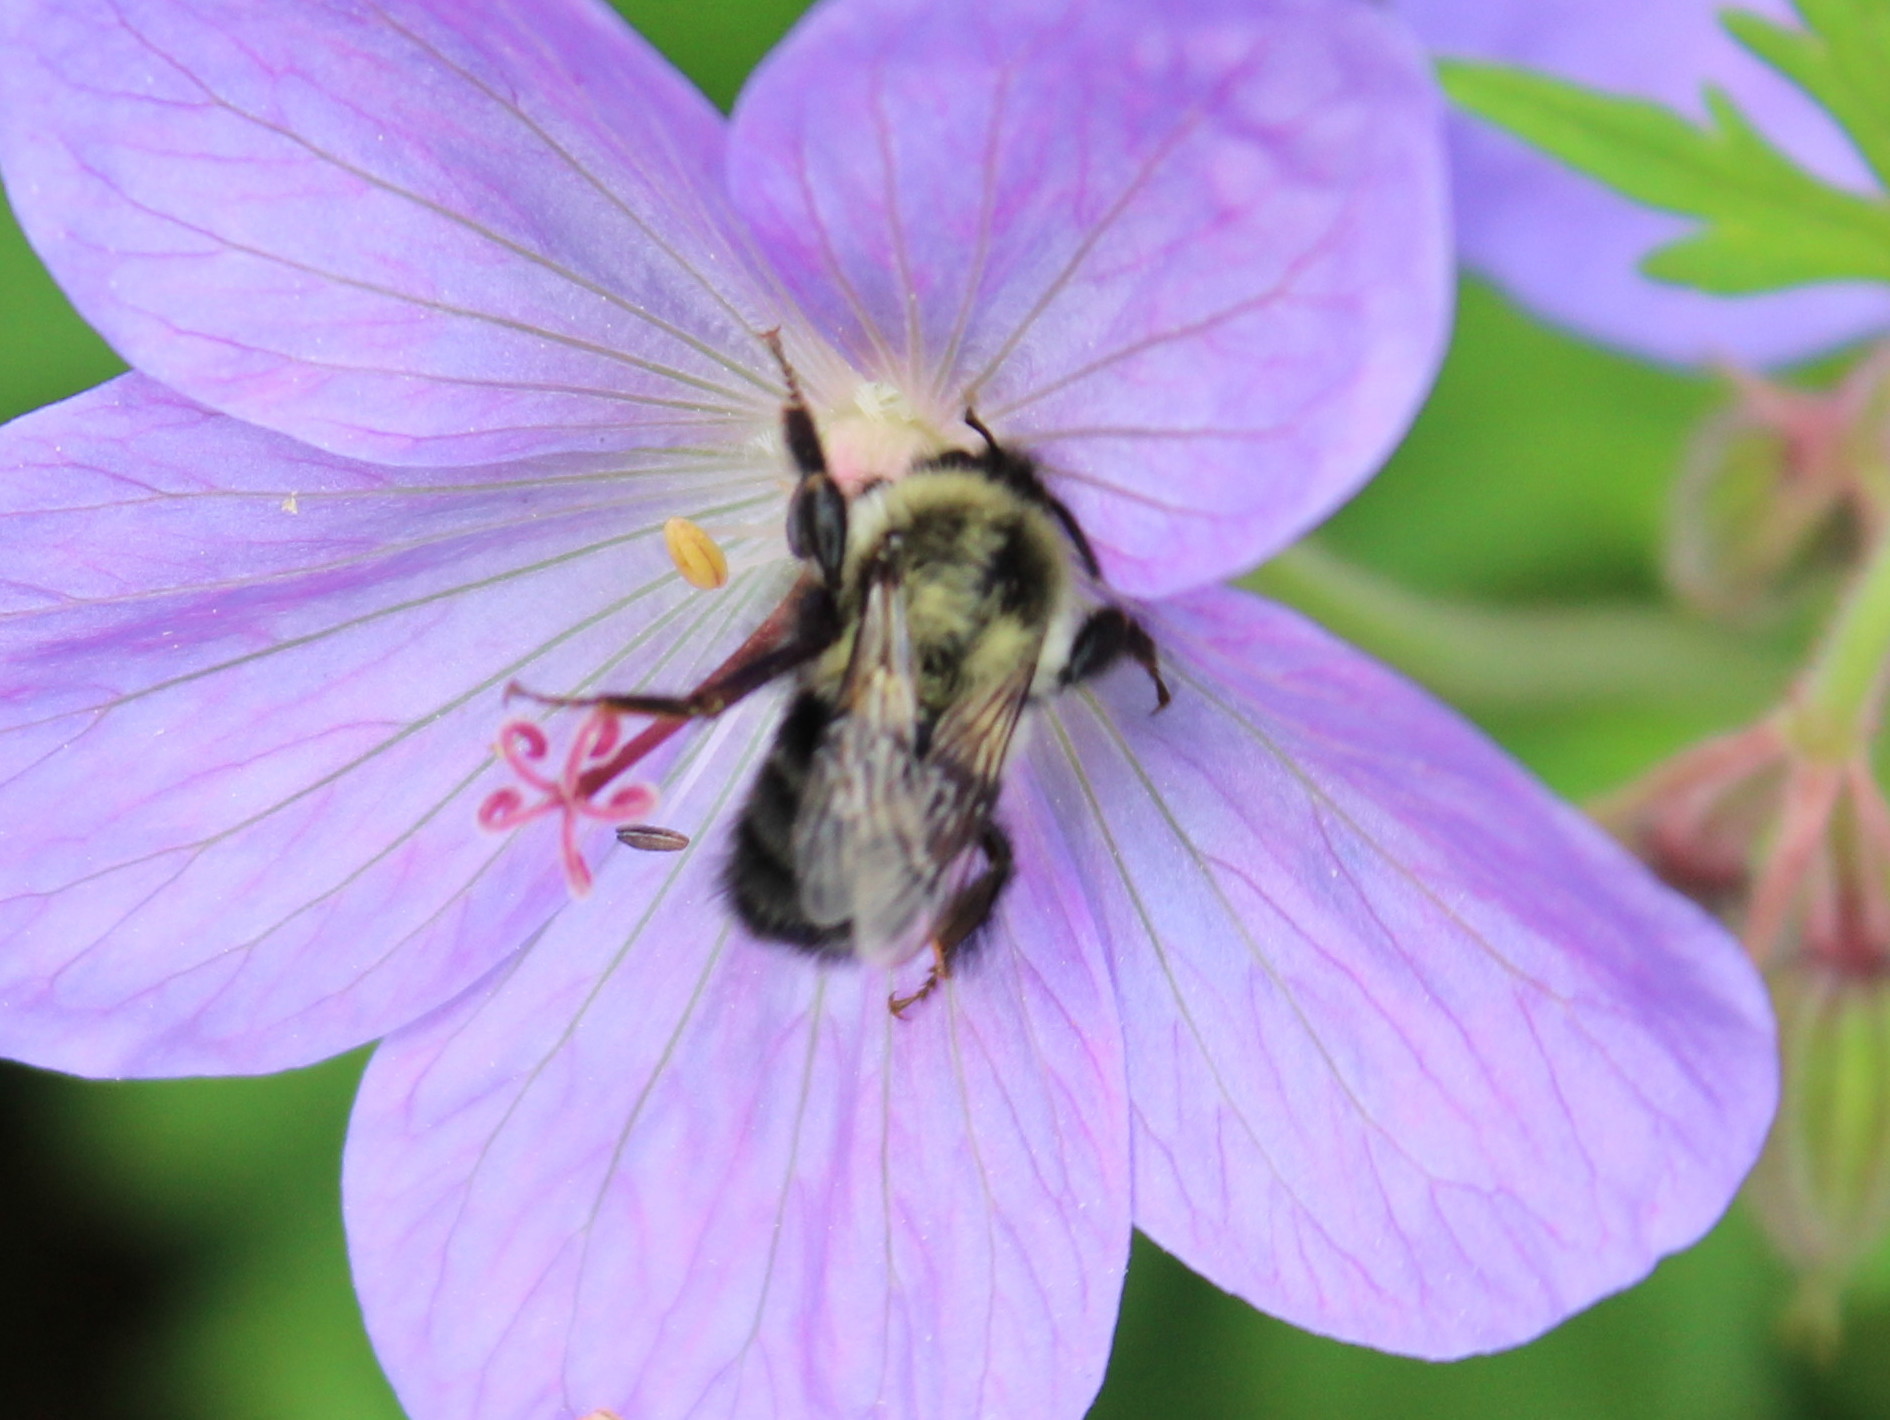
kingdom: Animalia
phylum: Arthropoda
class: Insecta
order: Hymenoptera
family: Apidae
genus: Bombus
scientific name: Bombus impatiens
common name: Common eastern bumble bee
